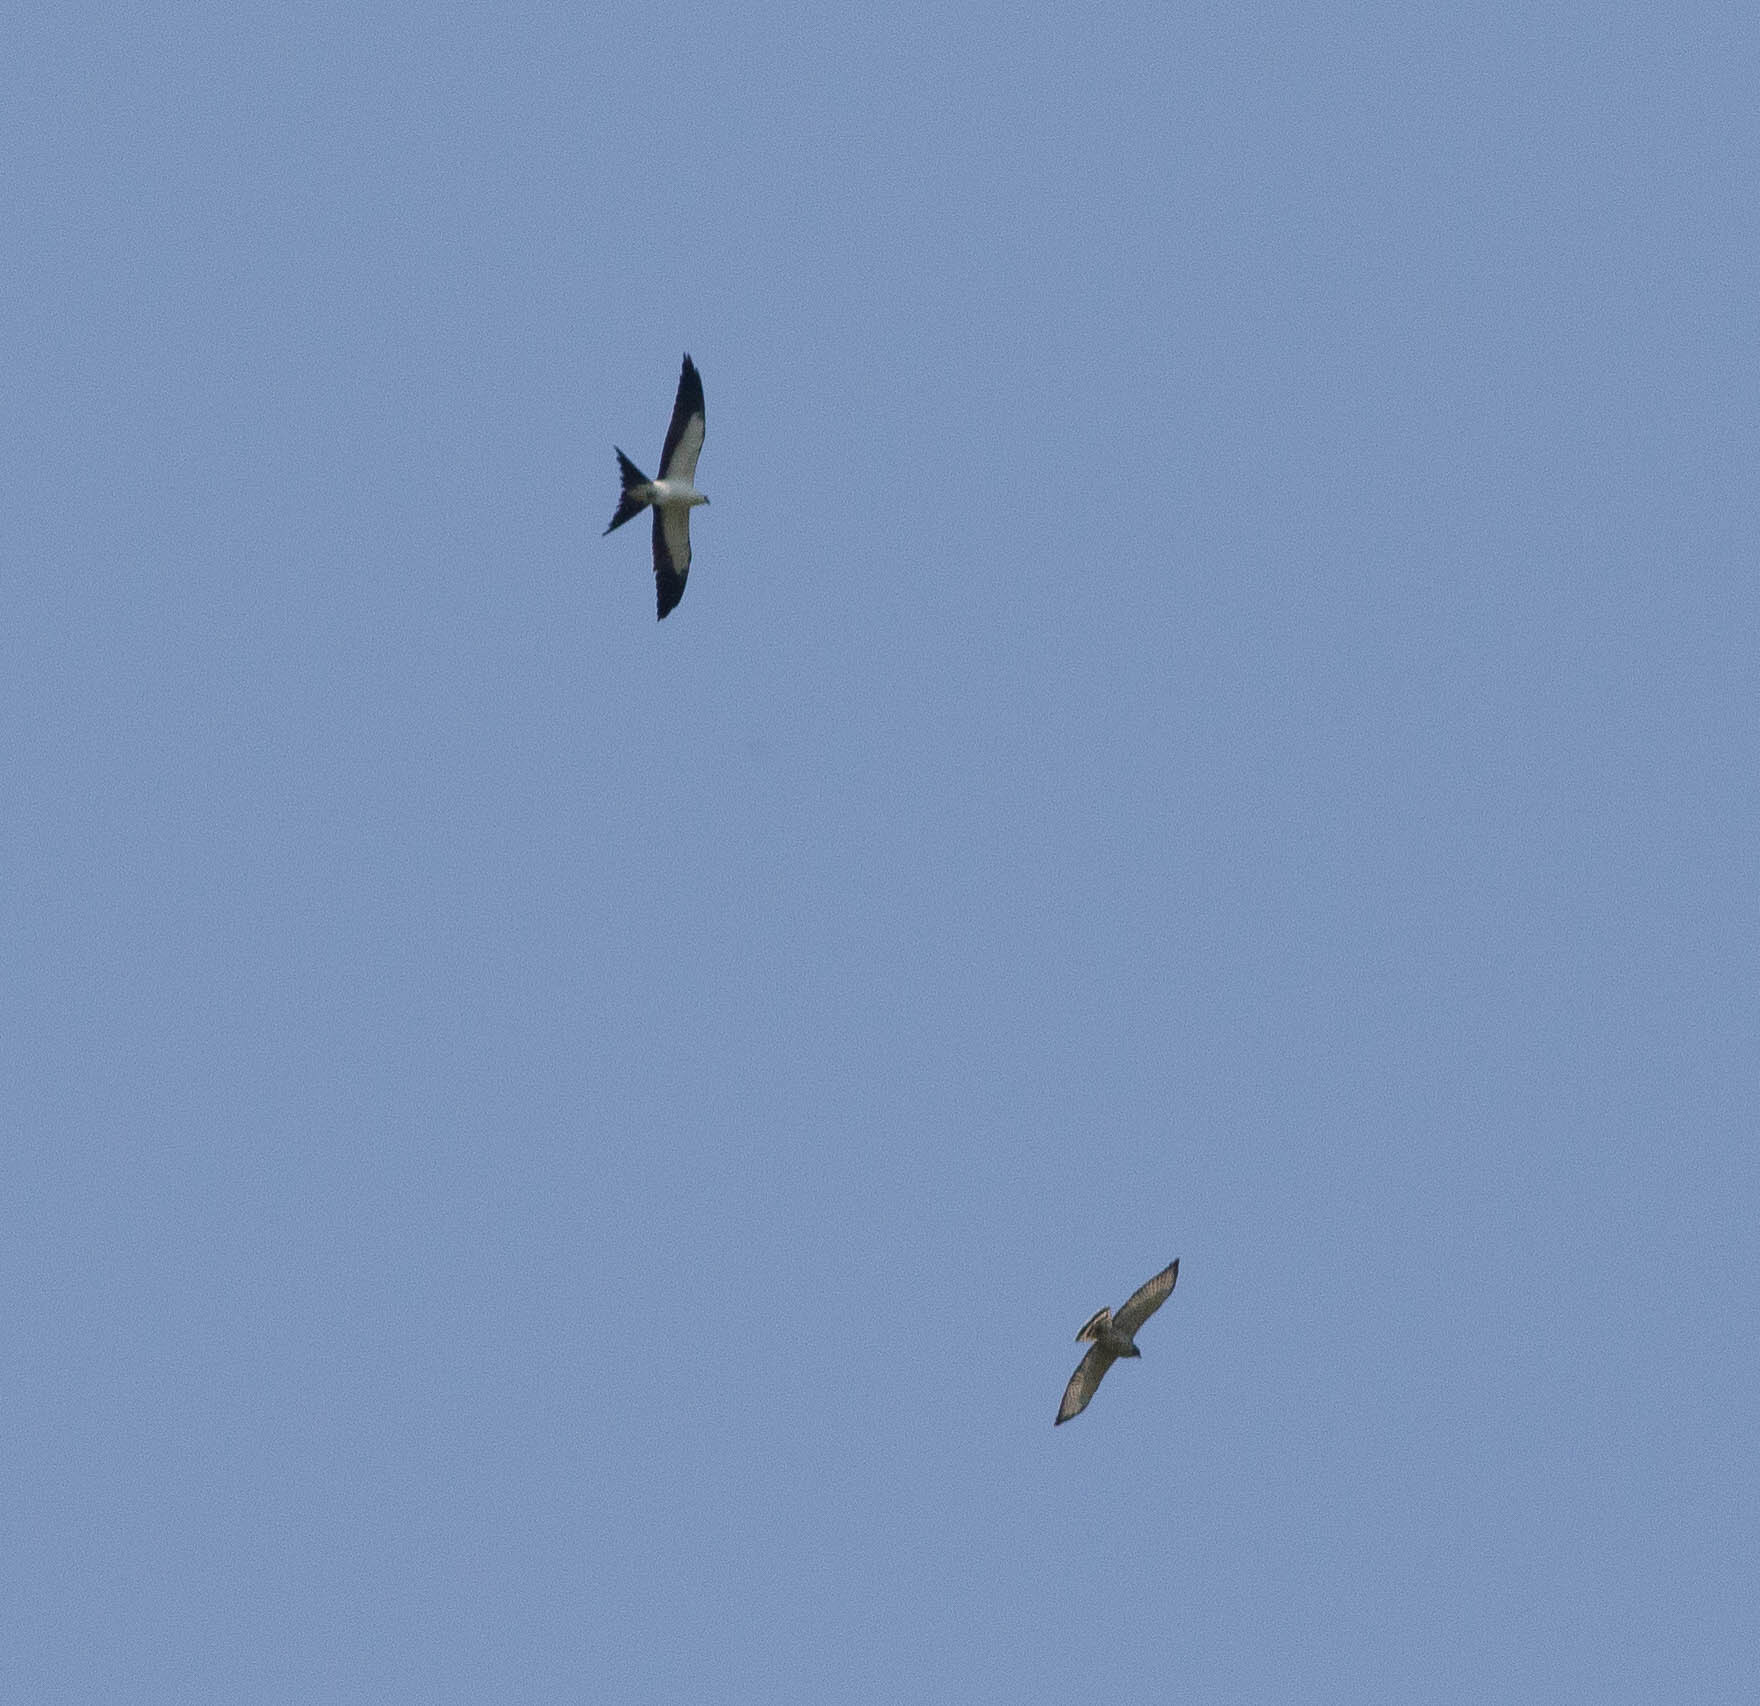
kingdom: Animalia
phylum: Chordata
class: Aves
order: Accipitriformes
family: Accipitridae
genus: Elanoides
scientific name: Elanoides forficatus
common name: Swallow-tailed kite
